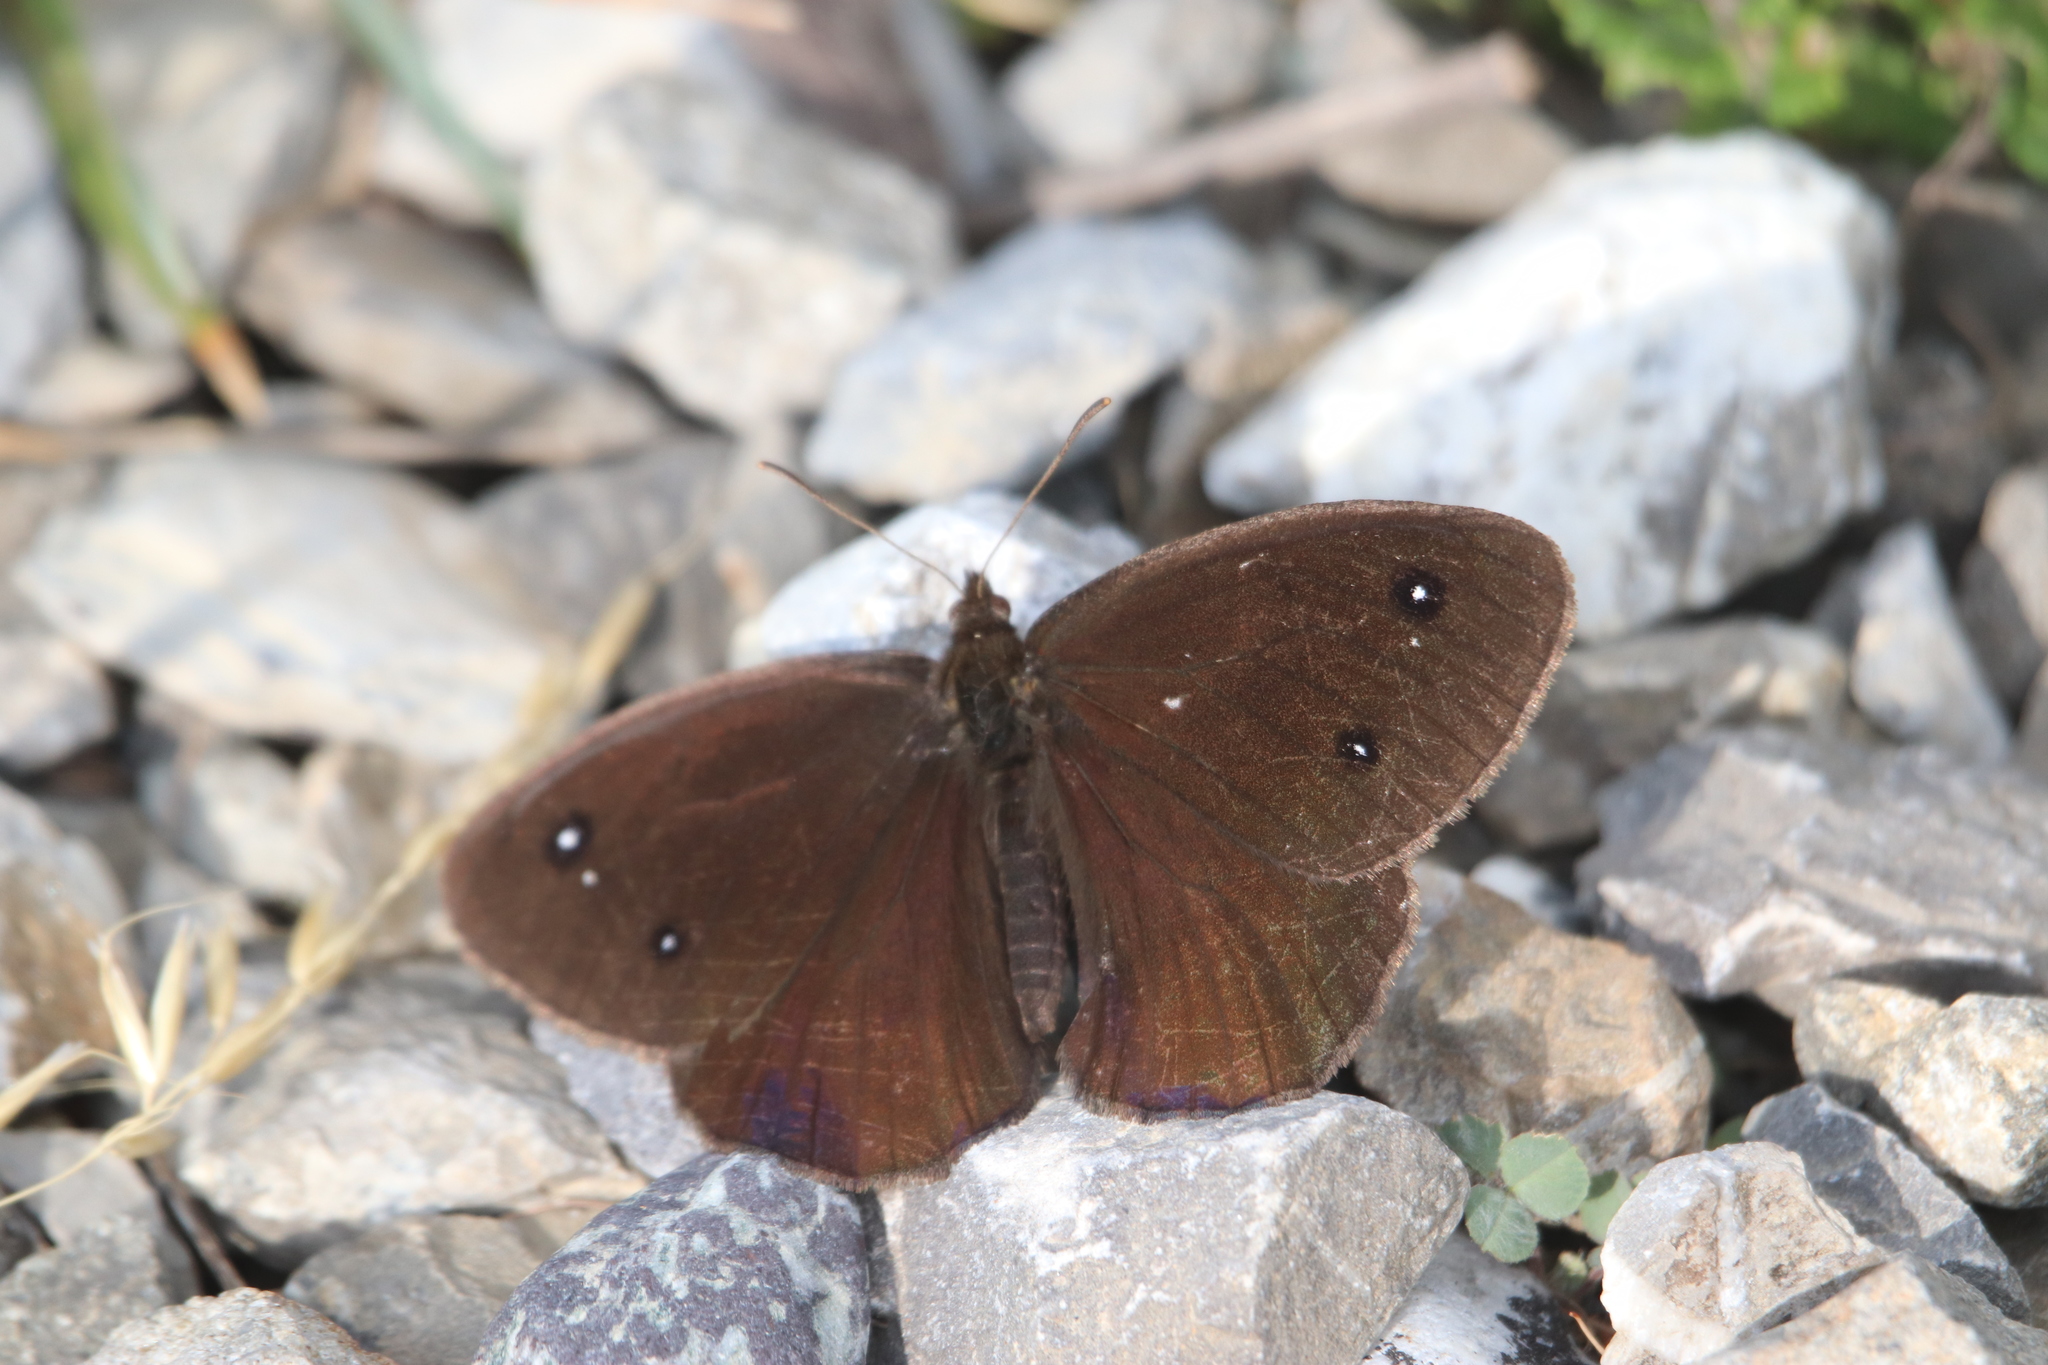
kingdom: Animalia
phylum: Arthropoda
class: Insecta
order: Lepidoptera
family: Nymphalidae
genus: Satyrus
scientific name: Satyrus ferula
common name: Great sooty satyr
